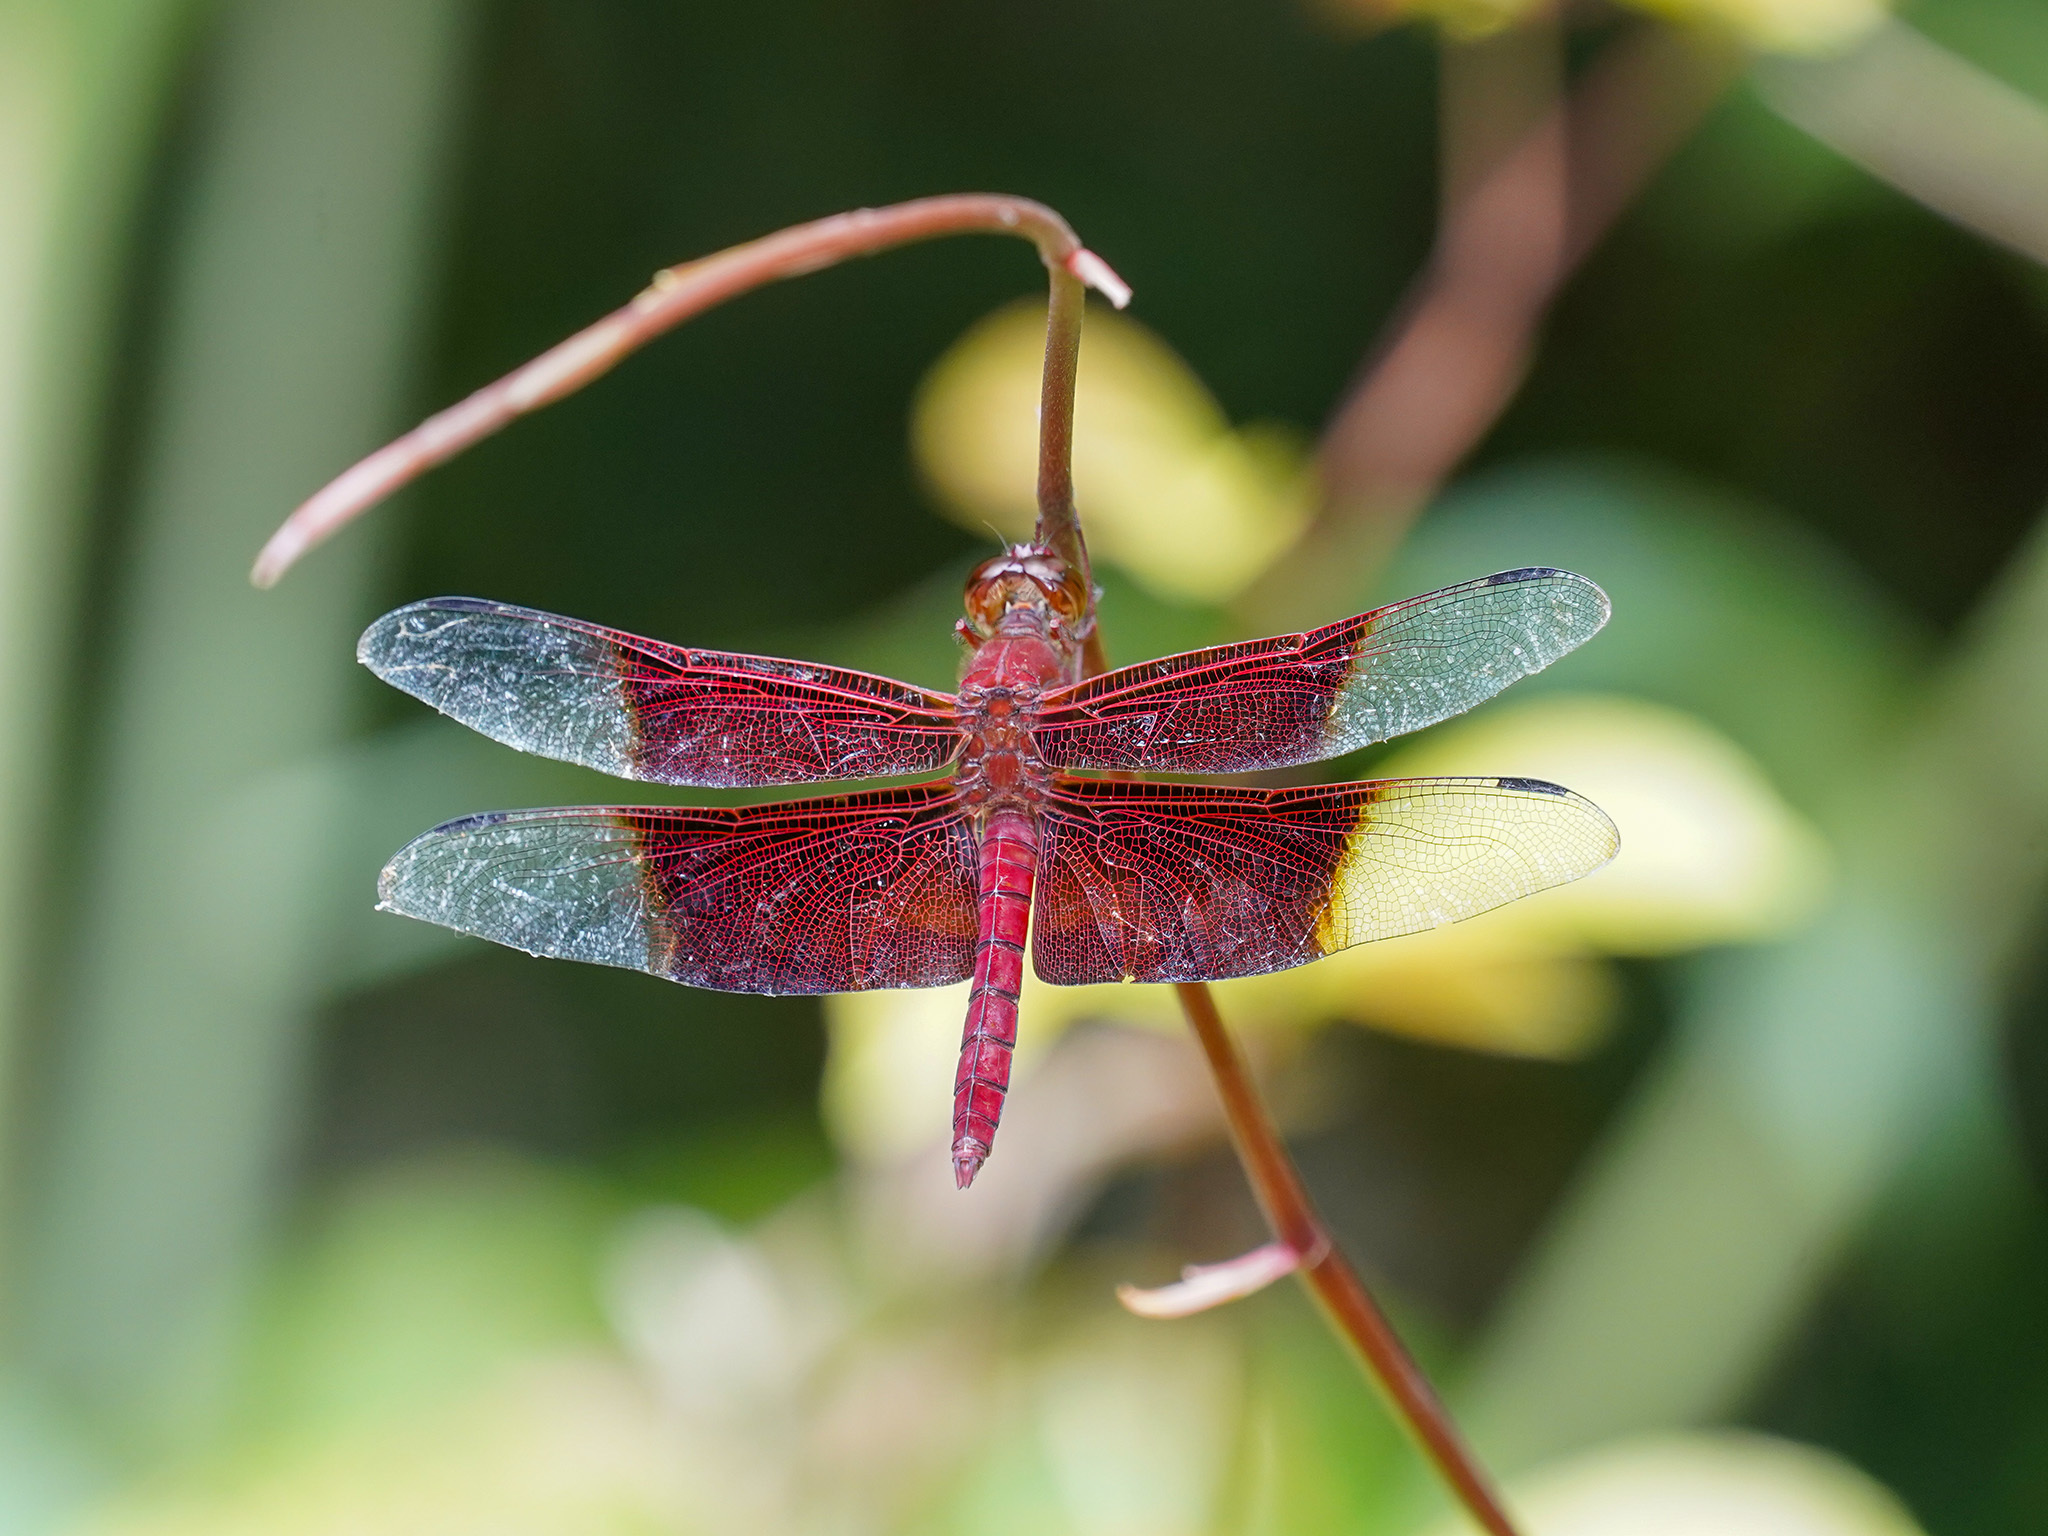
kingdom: Animalia
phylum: Arthropoda
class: Insecta
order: Odonata
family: Libellulidae
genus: Camacinia
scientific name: Camacinia gigantea
